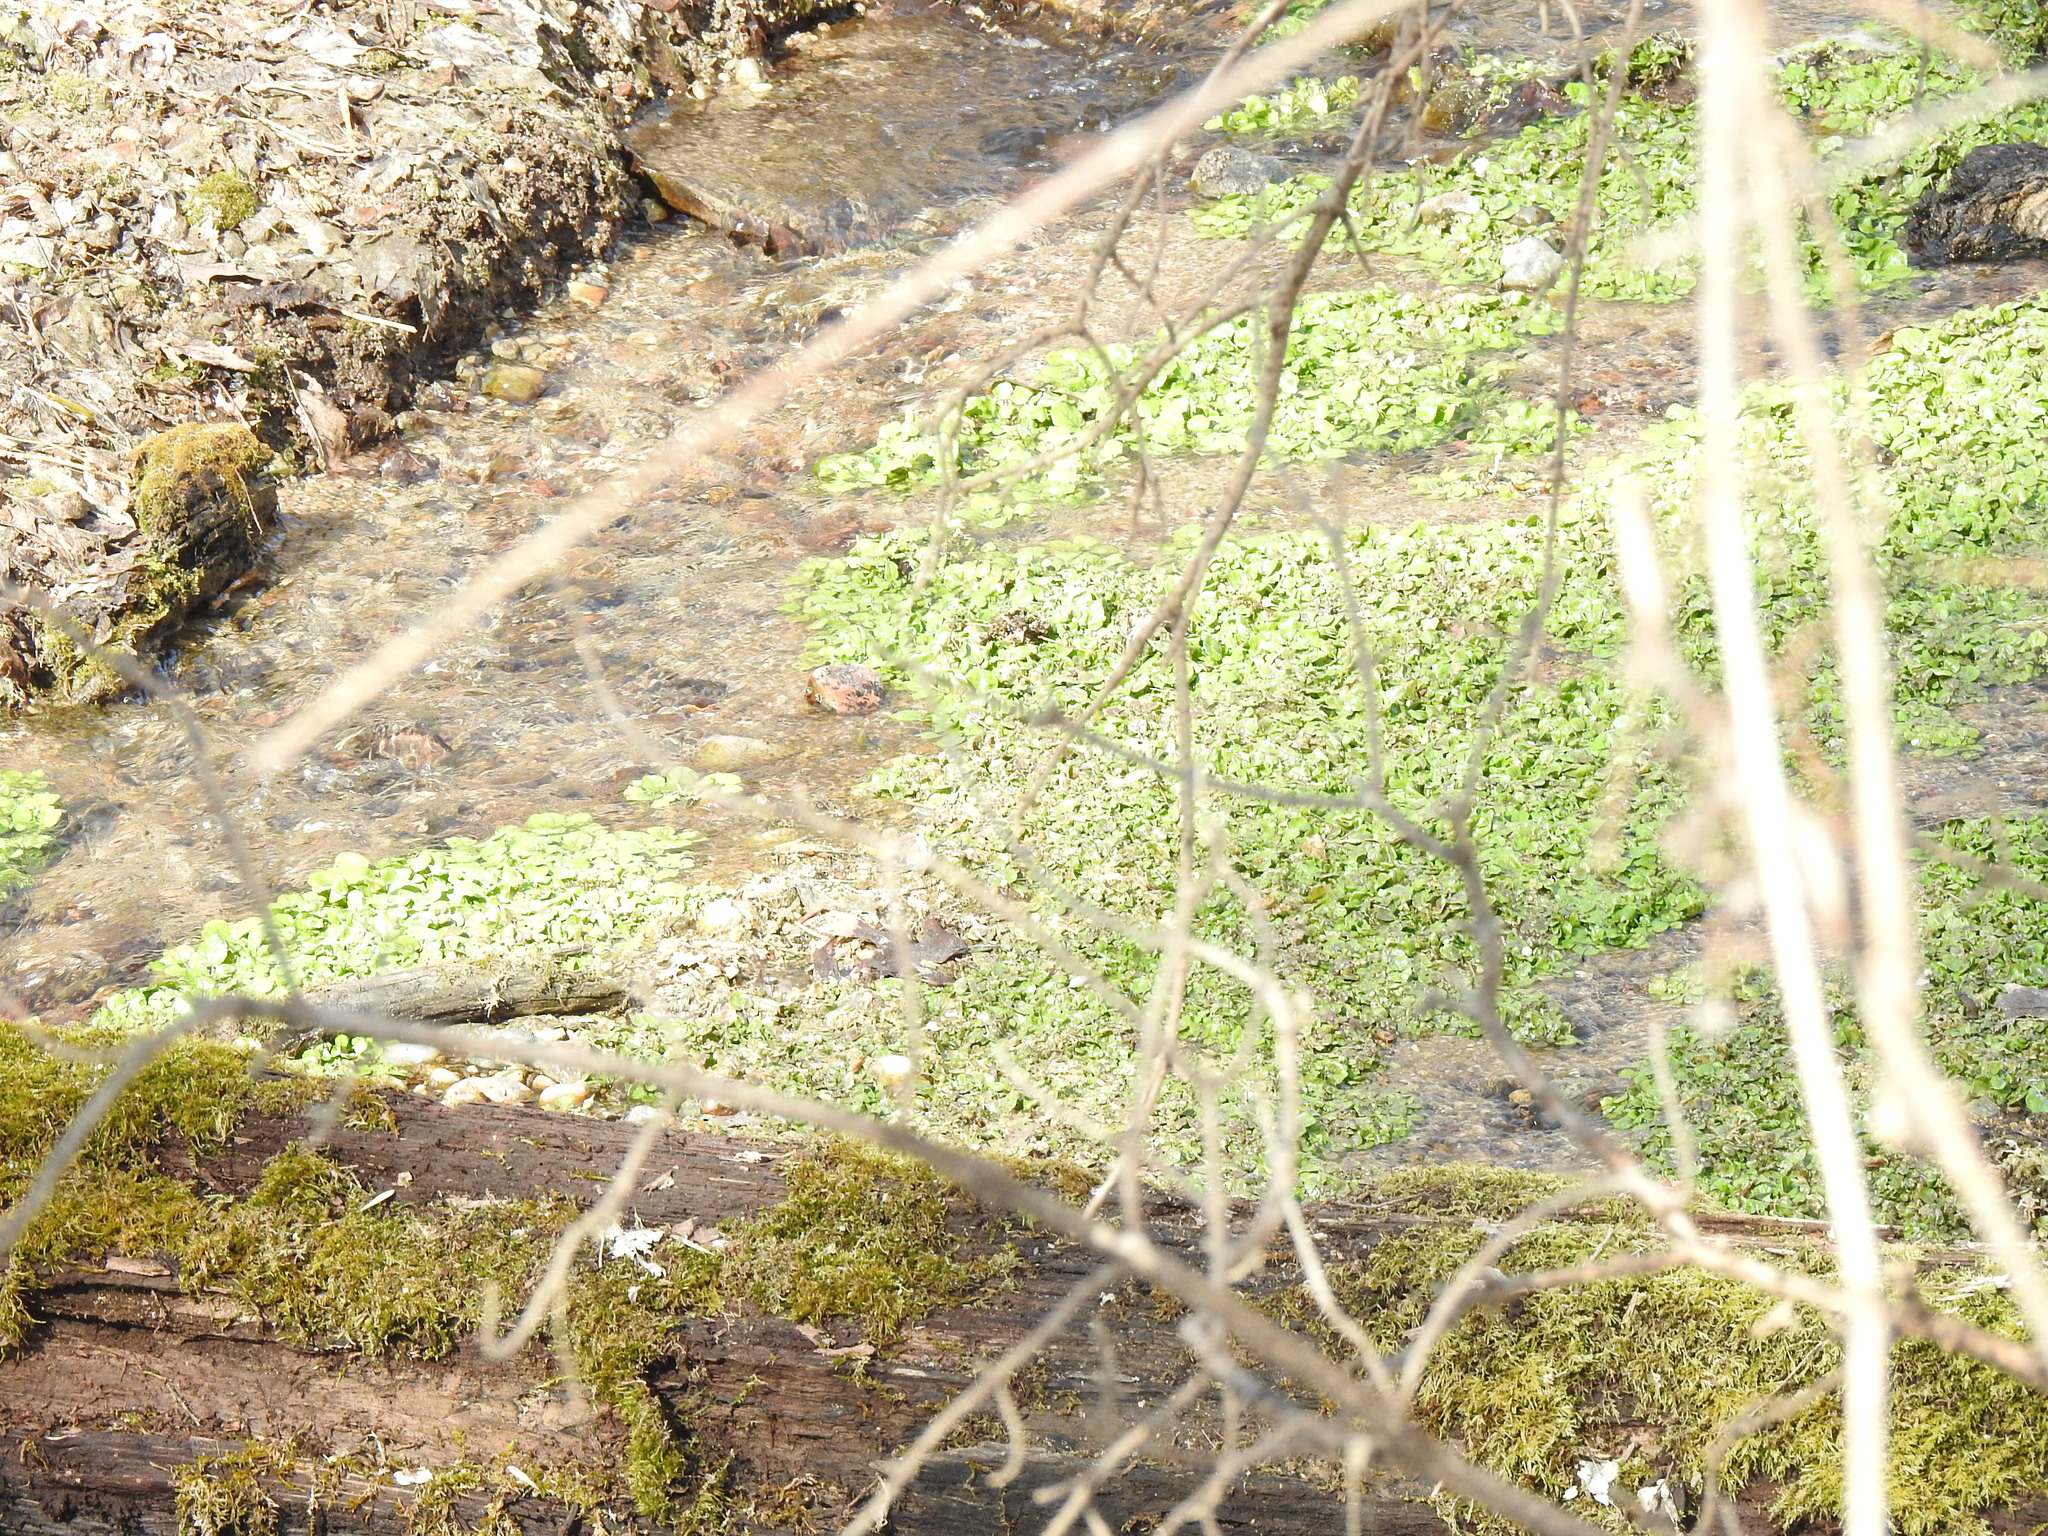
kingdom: Plantae
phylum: Tracheophyta
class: Magnoliopsida
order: Brassicales
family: Brassicaceae
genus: Nasturtium
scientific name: Nasturtium officinale
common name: Watercress
